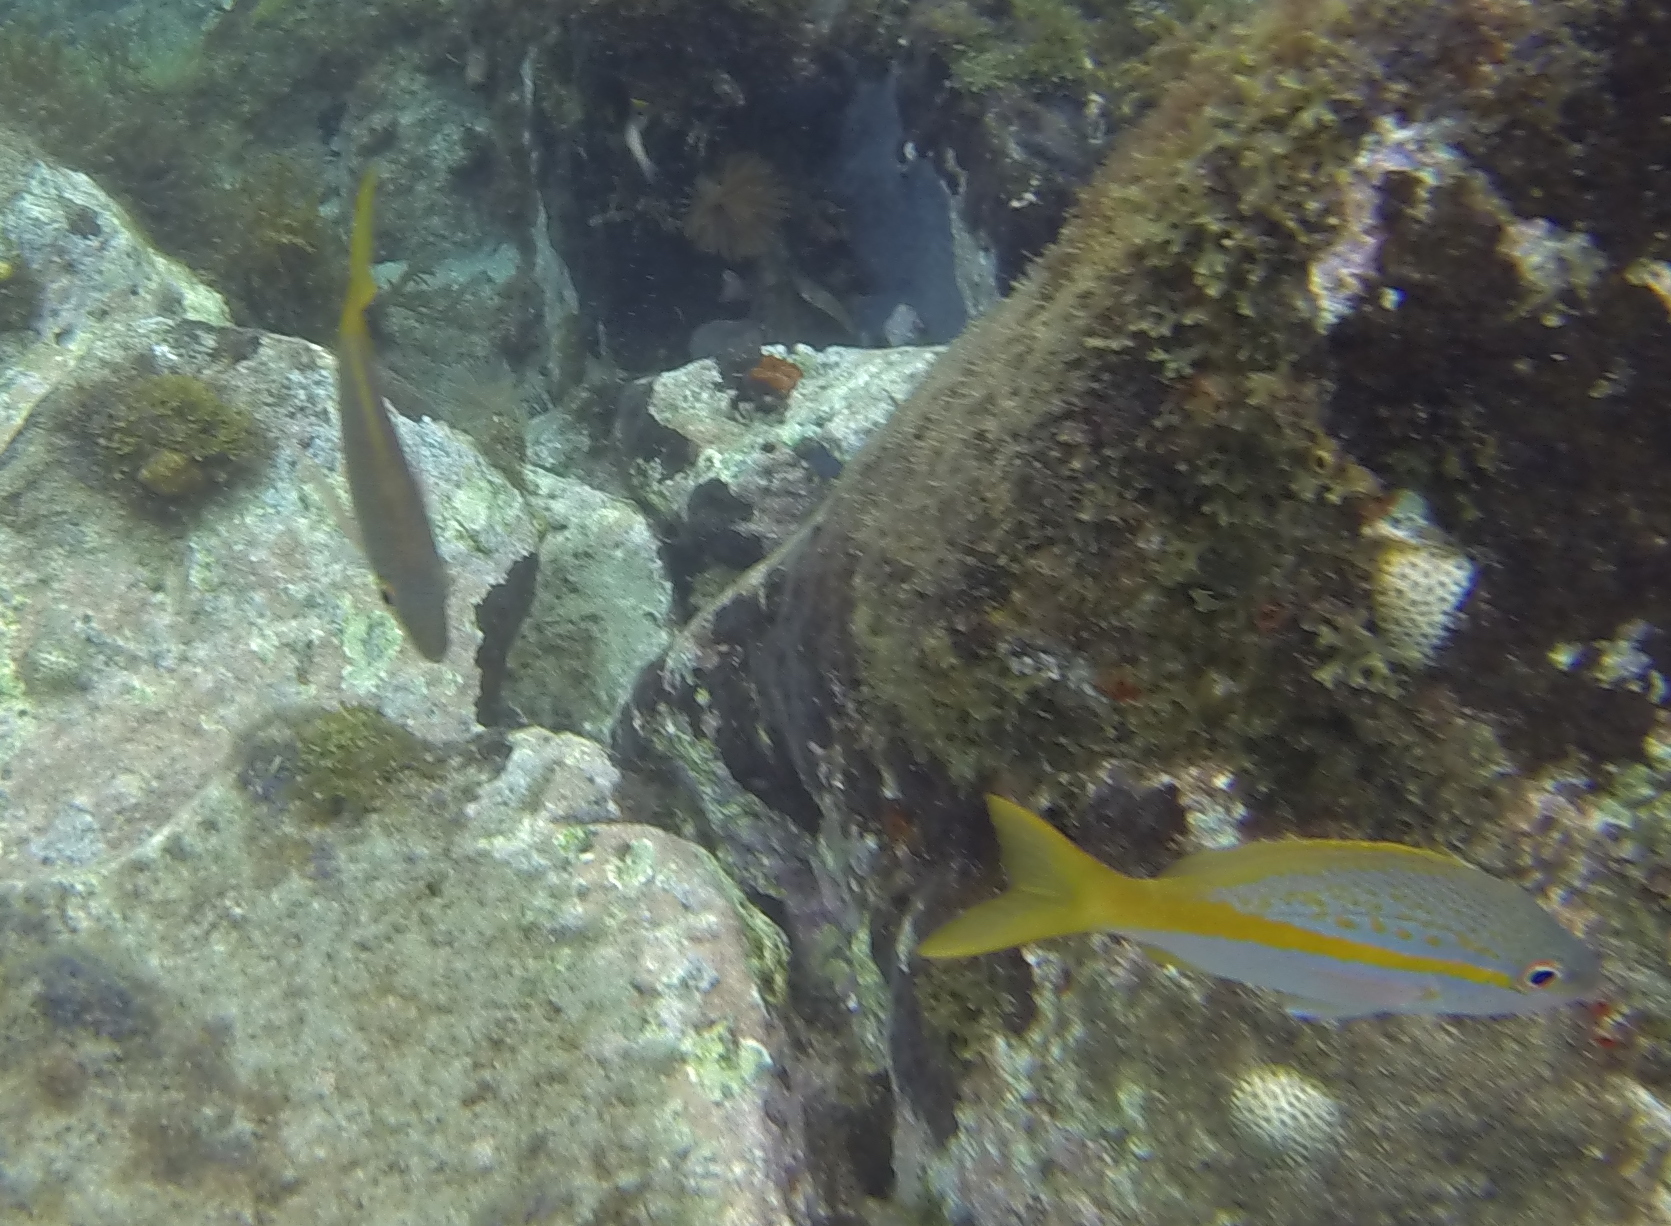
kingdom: Animalia
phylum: Chordata
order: Perciformes
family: Lutjanidae
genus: Ocyurus
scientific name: Ocyurus chrysurus
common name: Yellowtail snapper
